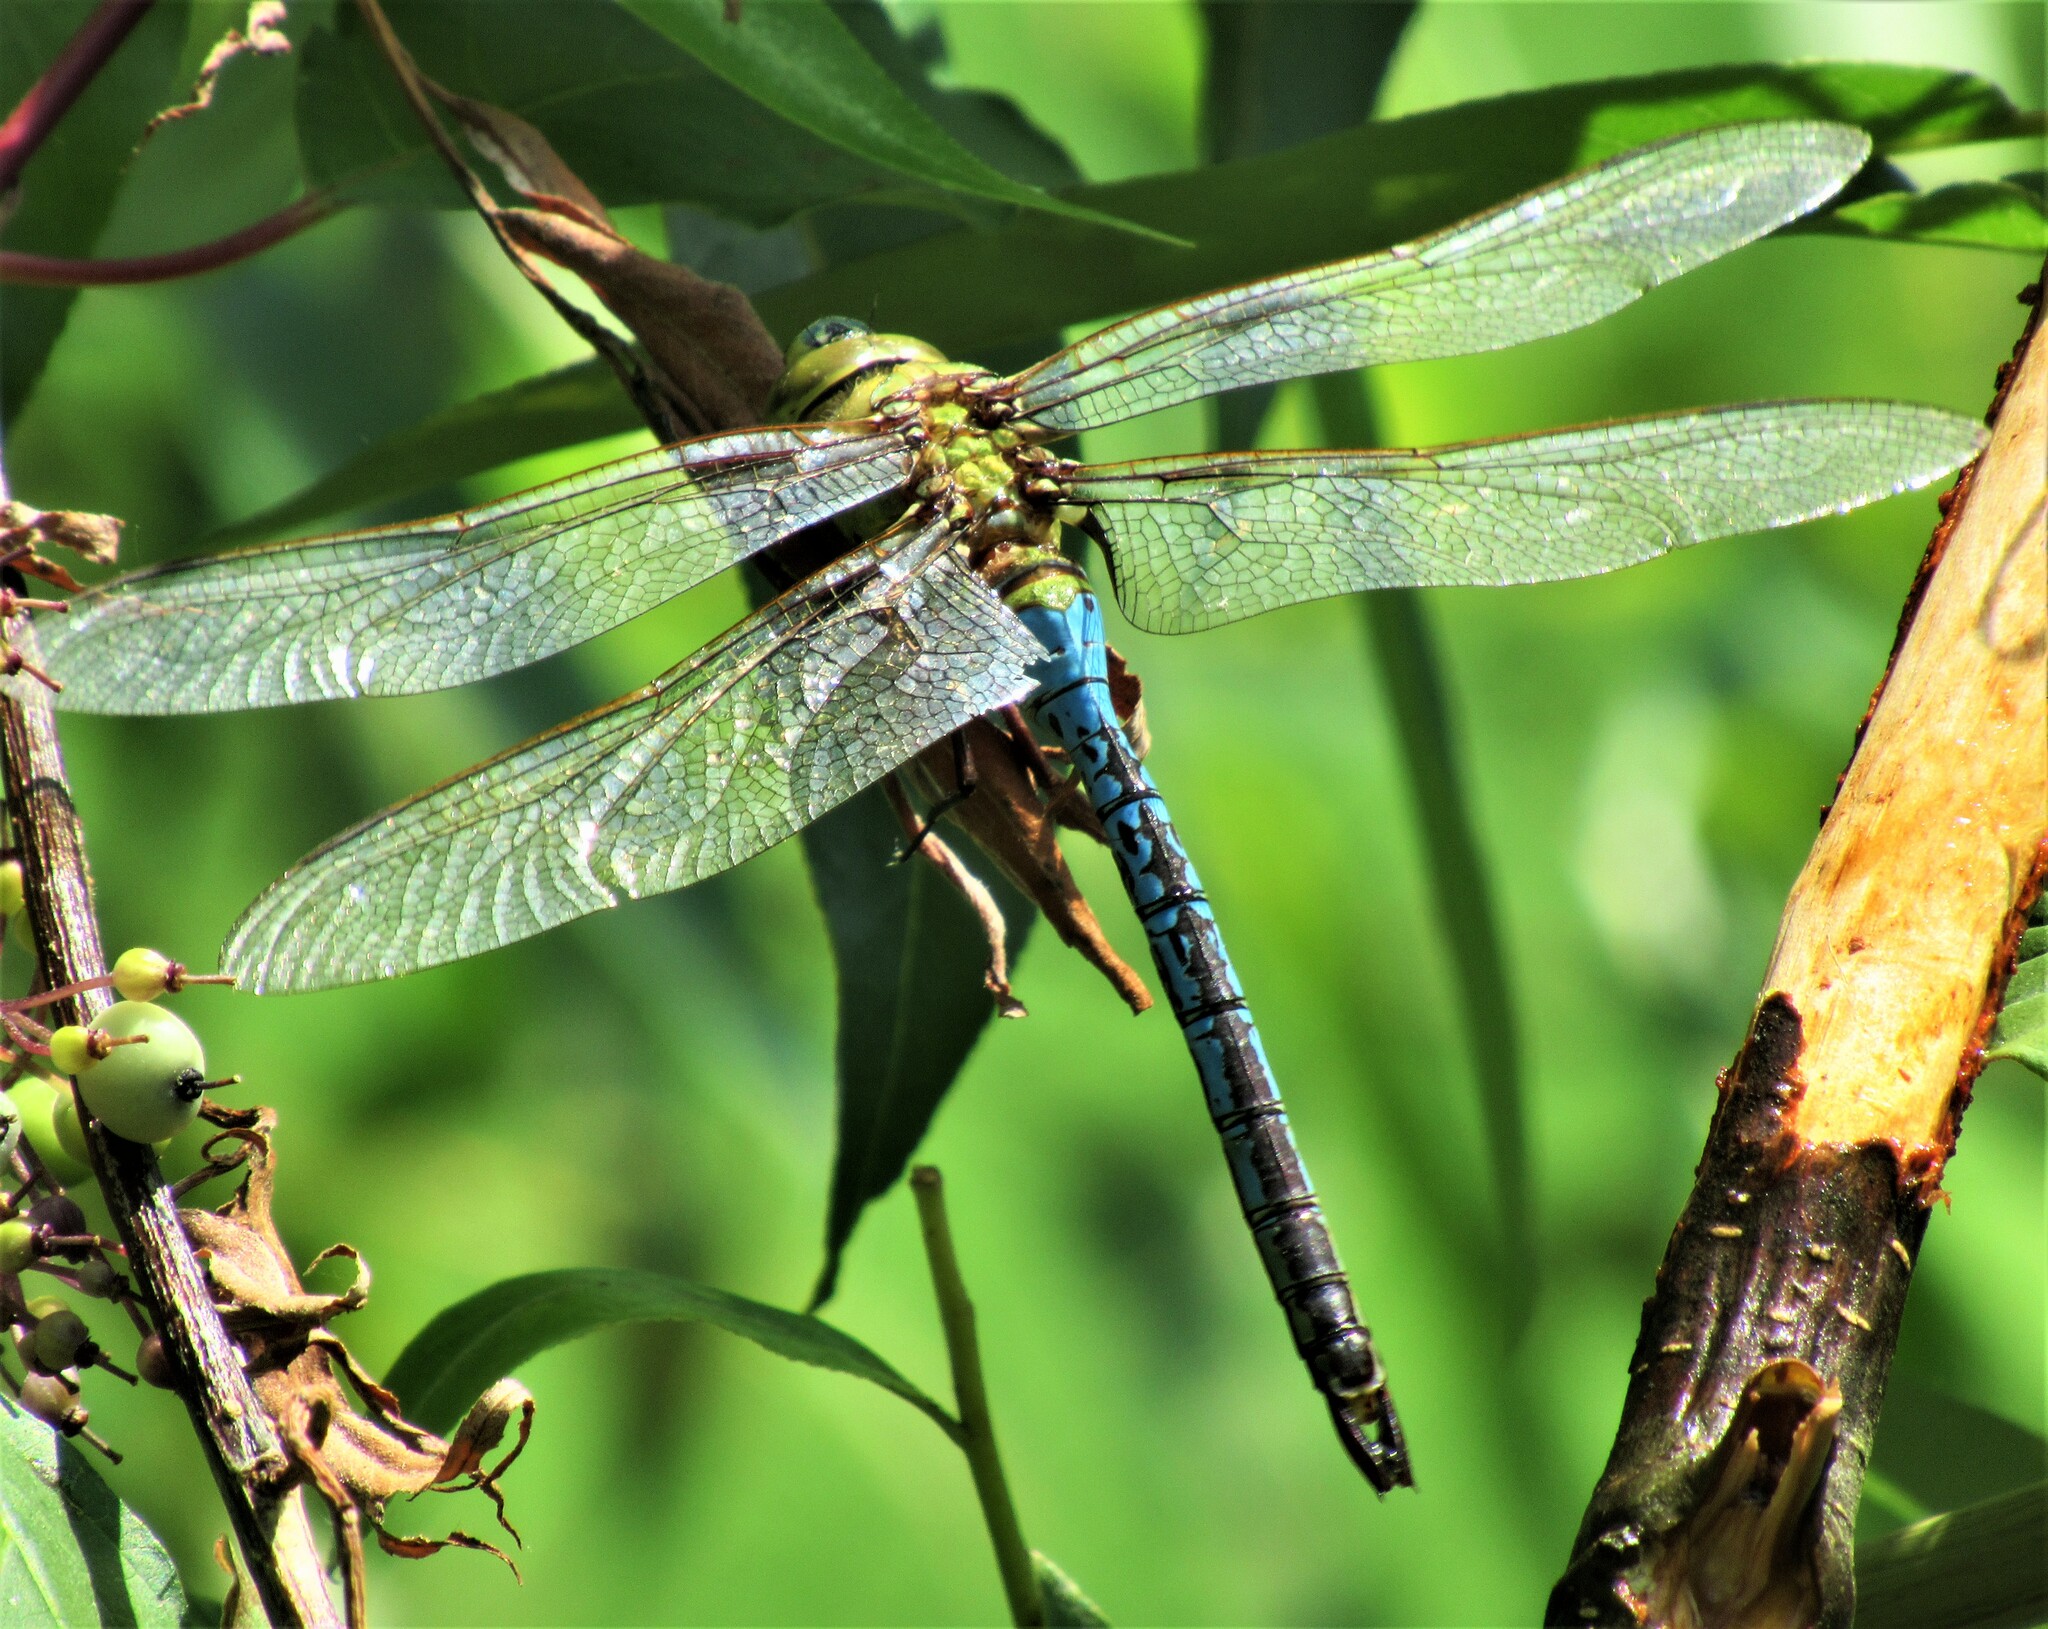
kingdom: Animalia
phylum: Arthropoda
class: Insecta
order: Odonata
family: Aeshnidae
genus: Anax
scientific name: Anax junius
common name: Common green darner
